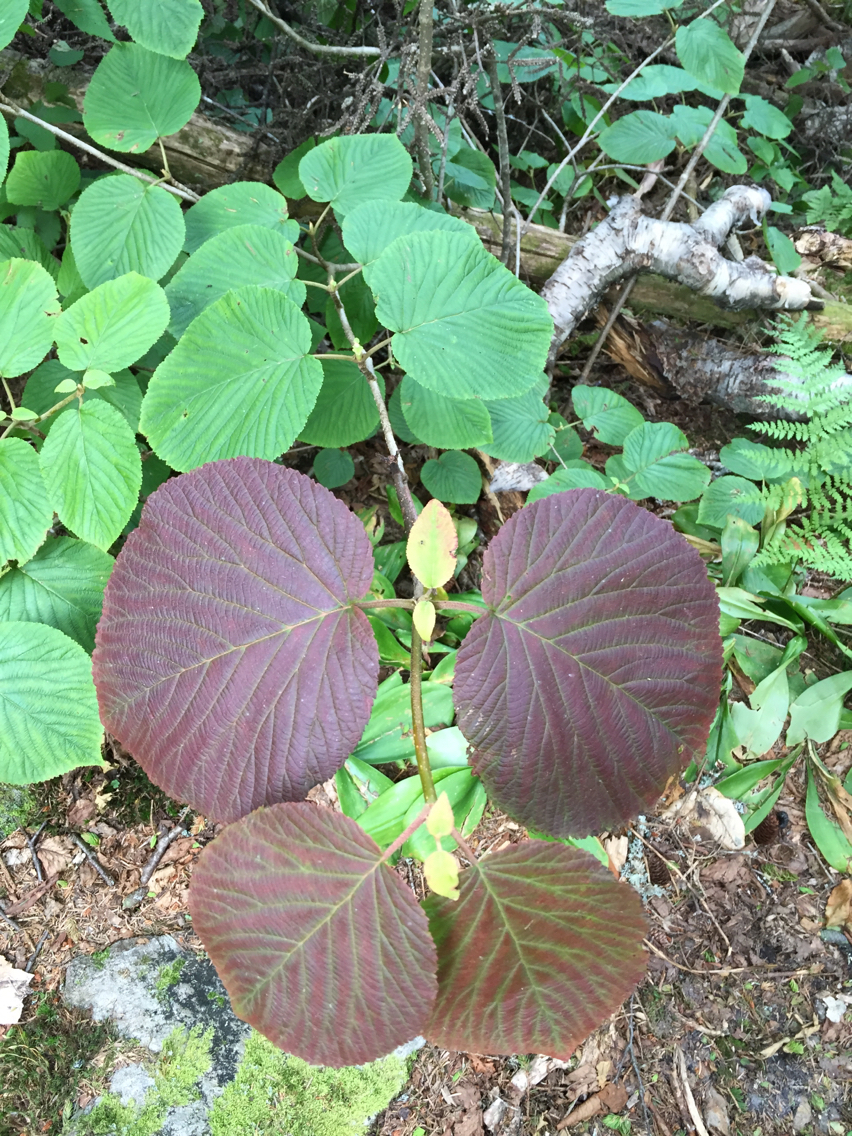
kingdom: Plantae
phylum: Tracheophyta
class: Magnoliopsida
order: Dipsacales
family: Viburnaceae
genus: Viburnum
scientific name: Viburnum lantanoides
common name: Hobblebush
